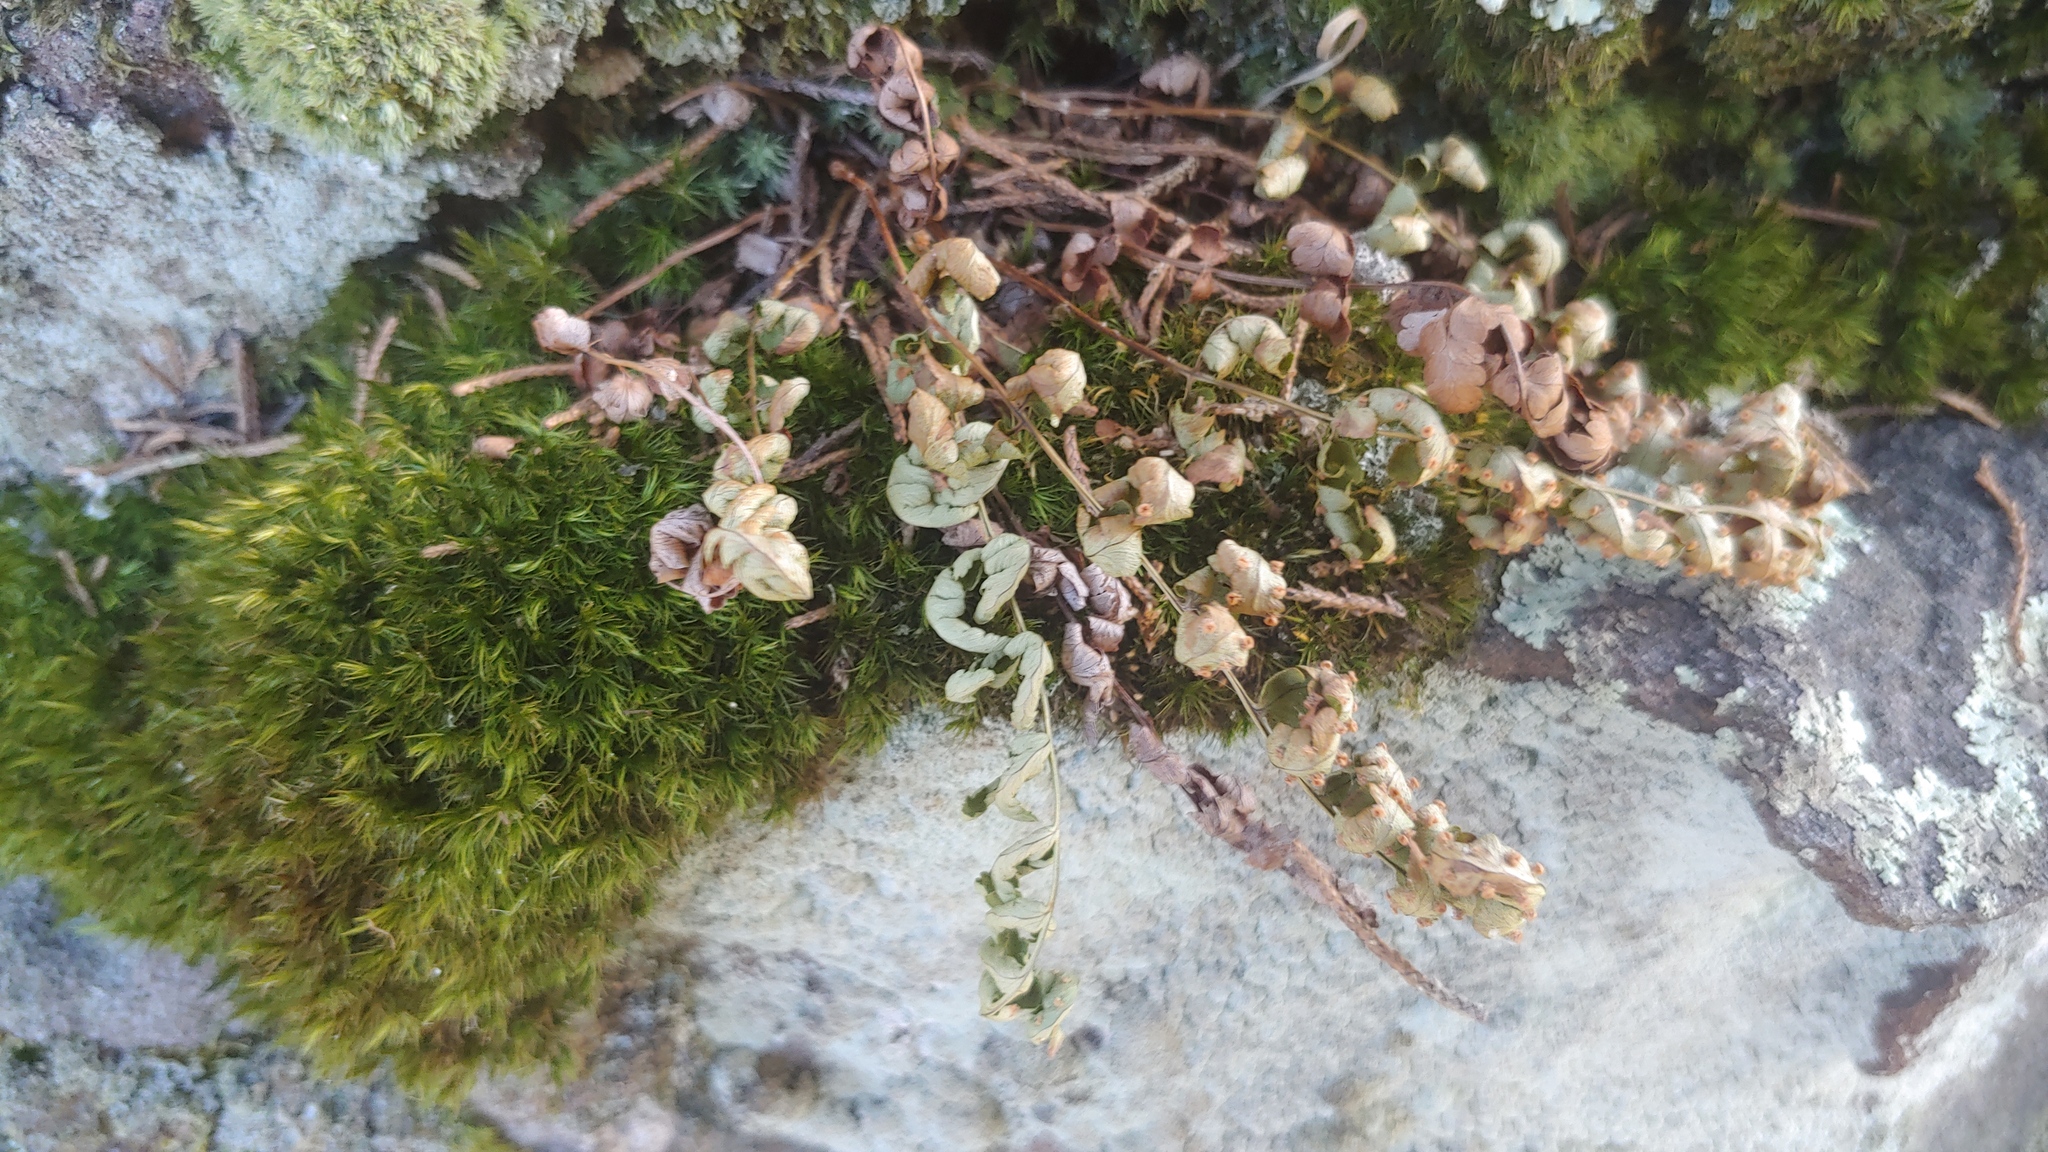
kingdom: Plantae
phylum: Tracheophyta
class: Polypodiopsida
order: Polypodiales
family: Dryopteridaceae
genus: Dryopteris
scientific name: Dryopteris marginalis
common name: Marginal wood fern
